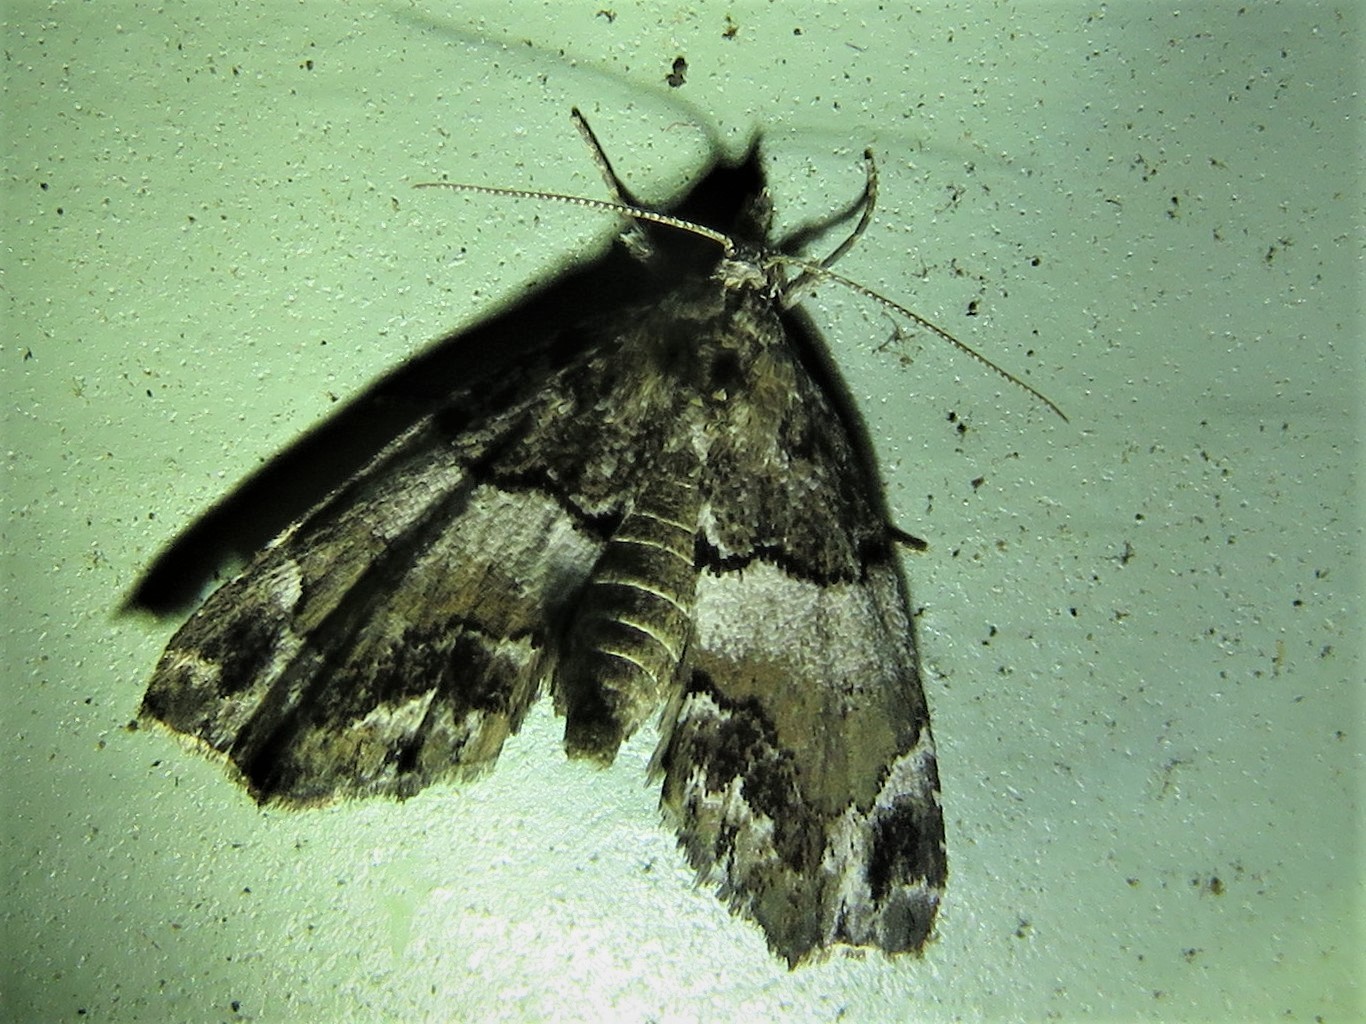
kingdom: Animalia
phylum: Arthropoda
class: Insecta
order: Lepidoptera
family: Erebidae
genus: Cutina
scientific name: Cutina distincta
